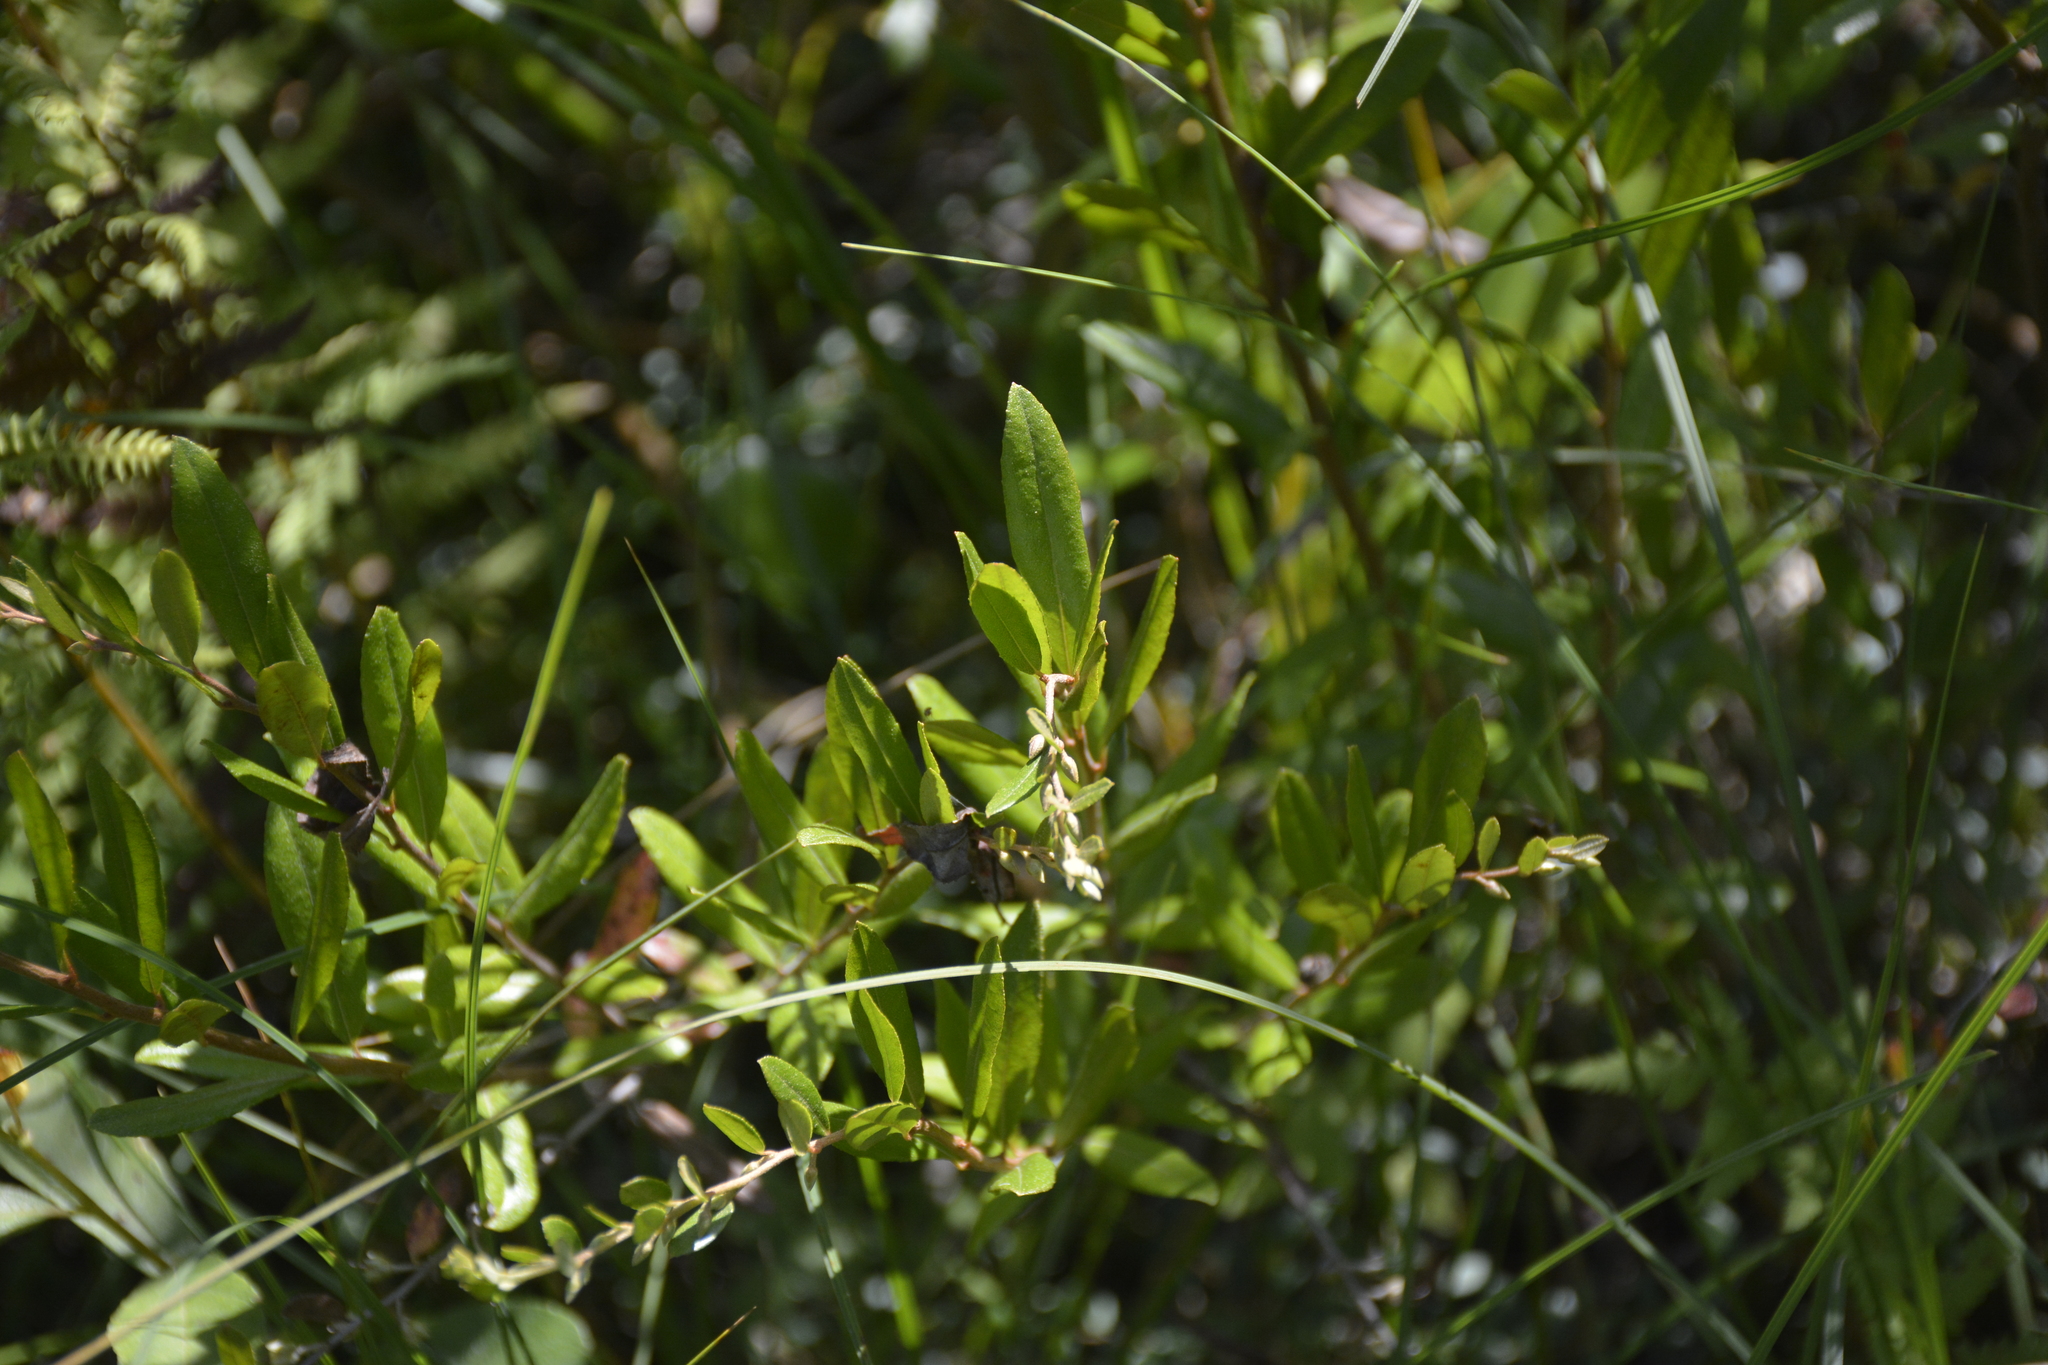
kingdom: Plantae
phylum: Tracheophyta
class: Magnoliopsida
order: Ericales
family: Ericaceae
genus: Chamaedaphne
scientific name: Chamaedaphne calyculata
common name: Leatherleaf
